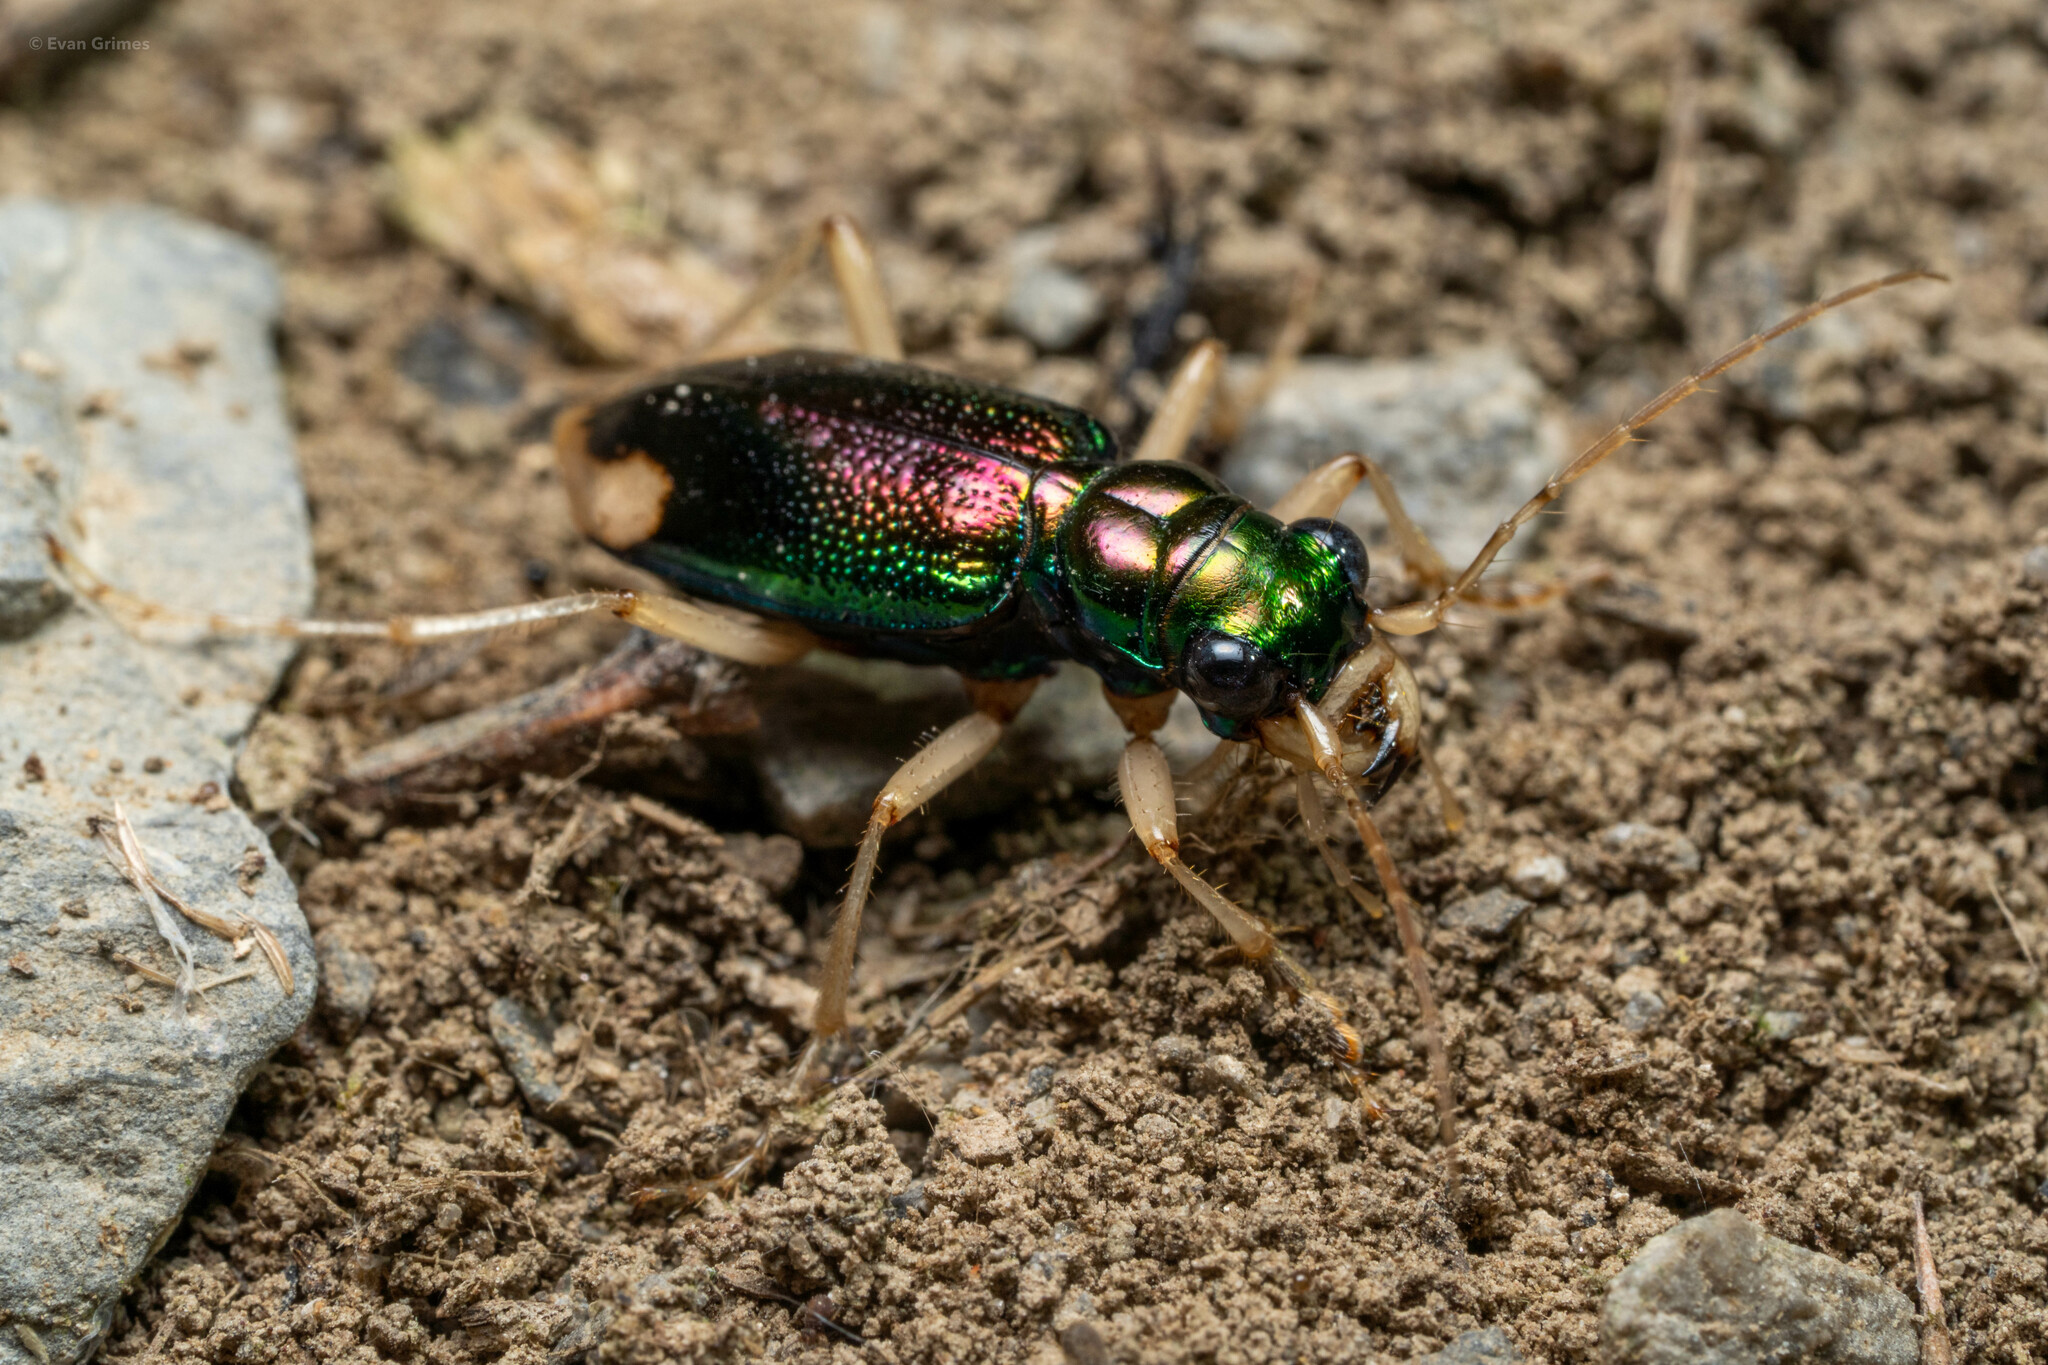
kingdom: Animalia
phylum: Arthropoda
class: Insecta
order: Coleoptera
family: Carabidae
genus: Tetracha
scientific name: Tetracha carolina
